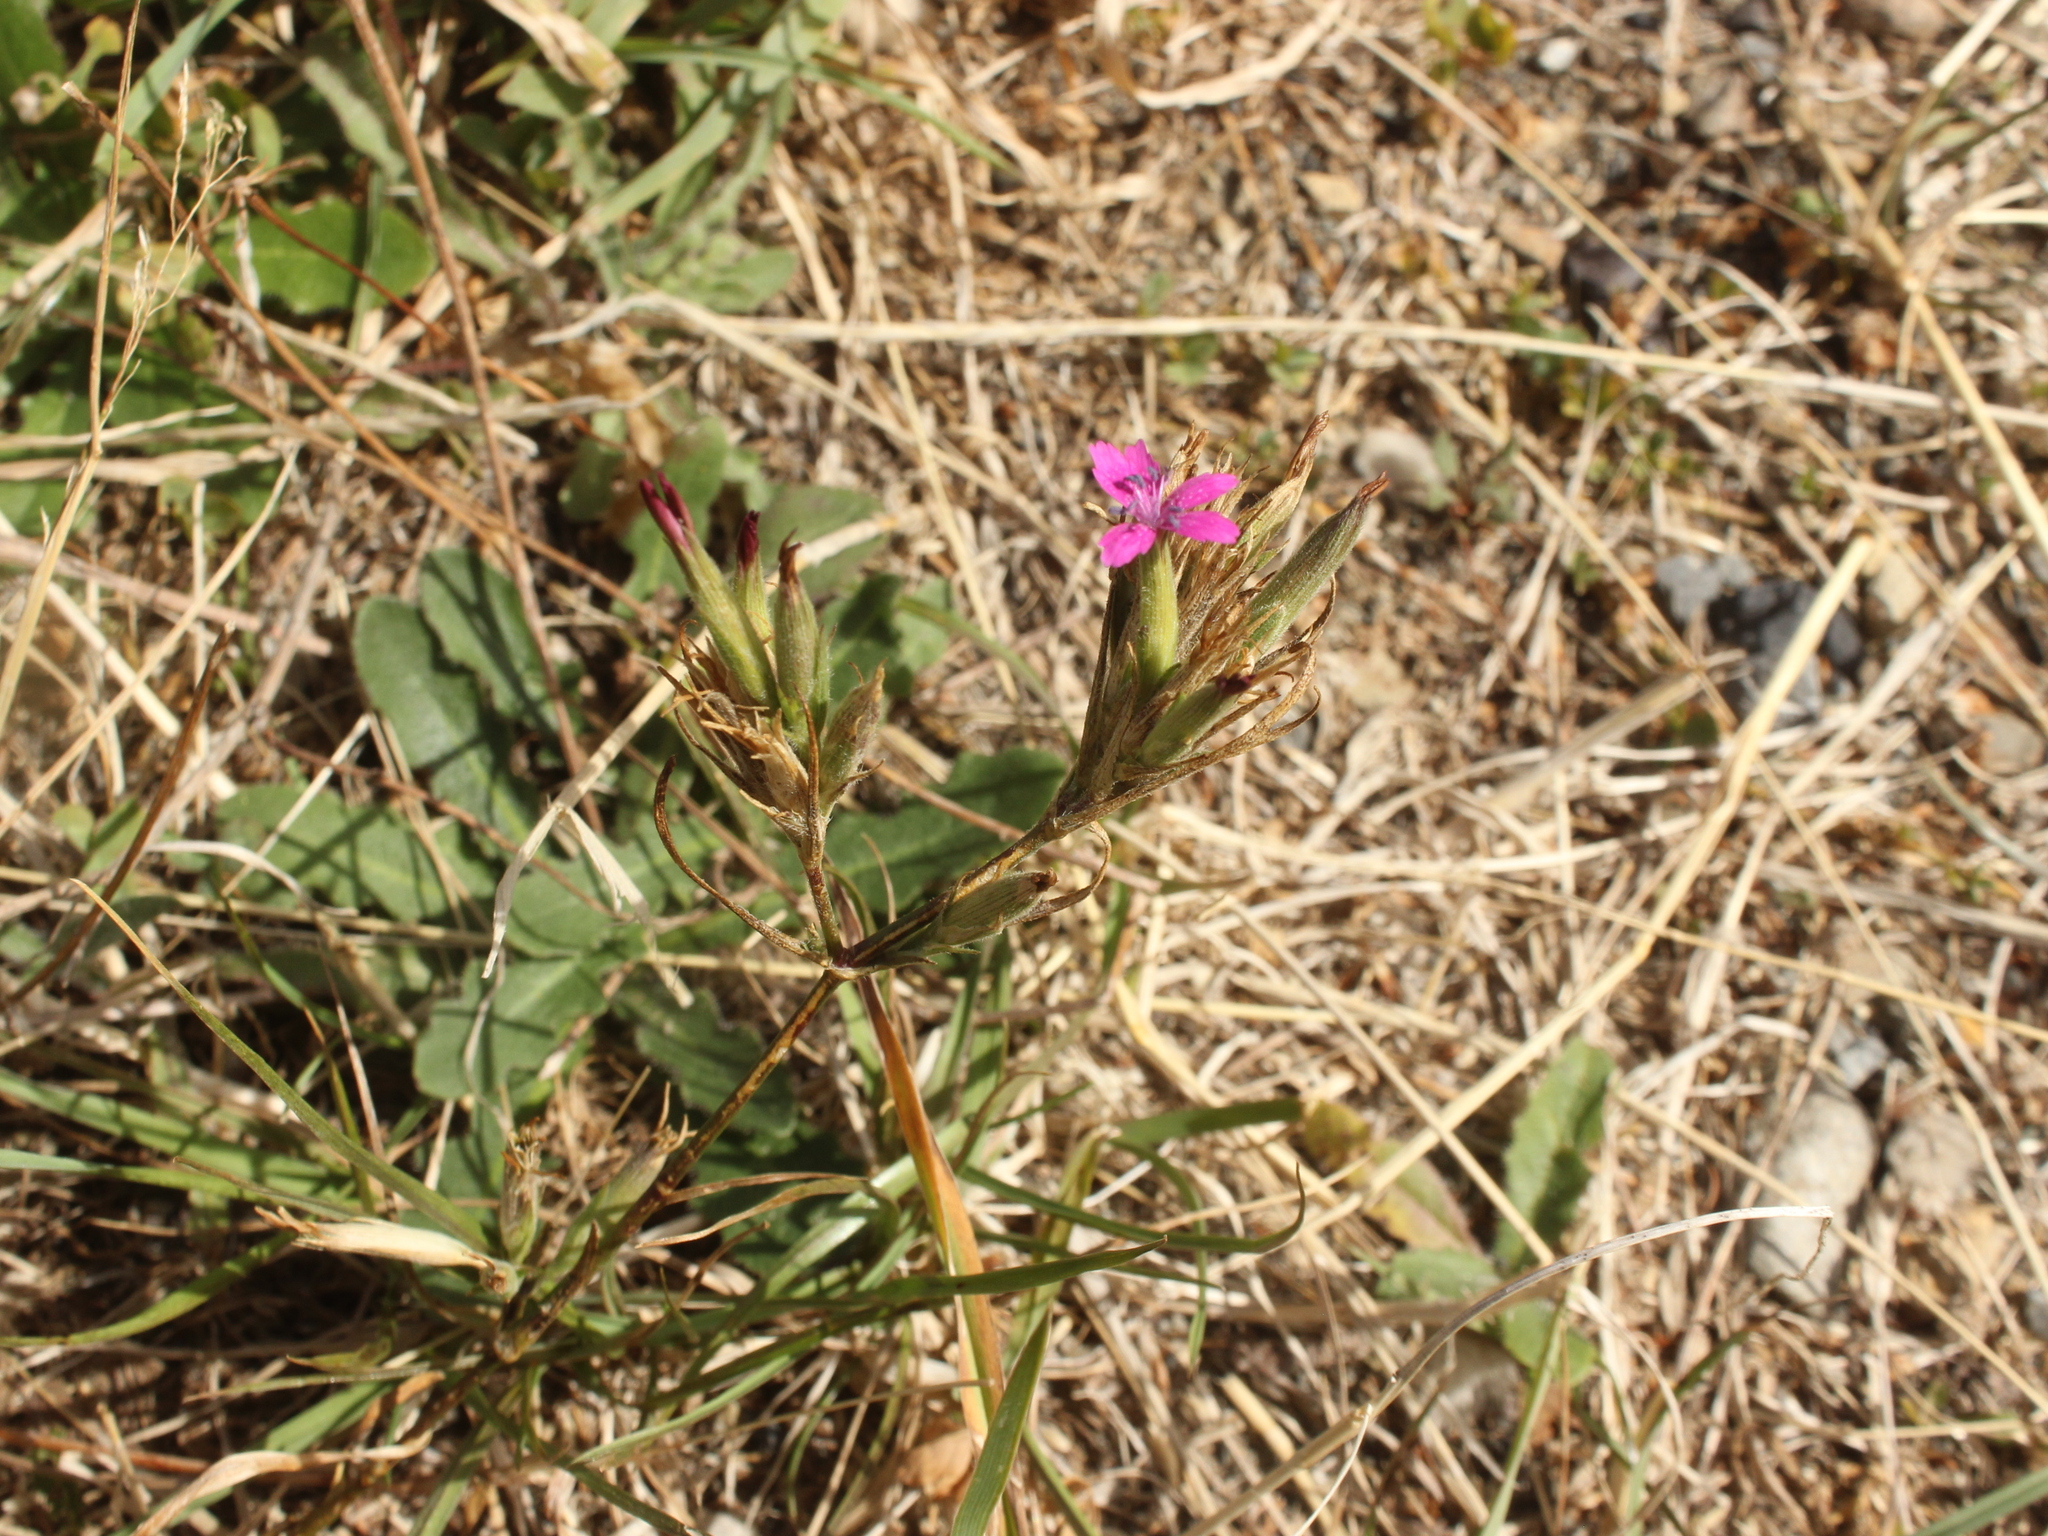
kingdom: Plantae
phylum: Tracheophyta
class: Magnoliopsida
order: Caryophyllales
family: Caryophyllaceae
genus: Dianthus
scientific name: Dianthus armeria
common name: Deptford pink
